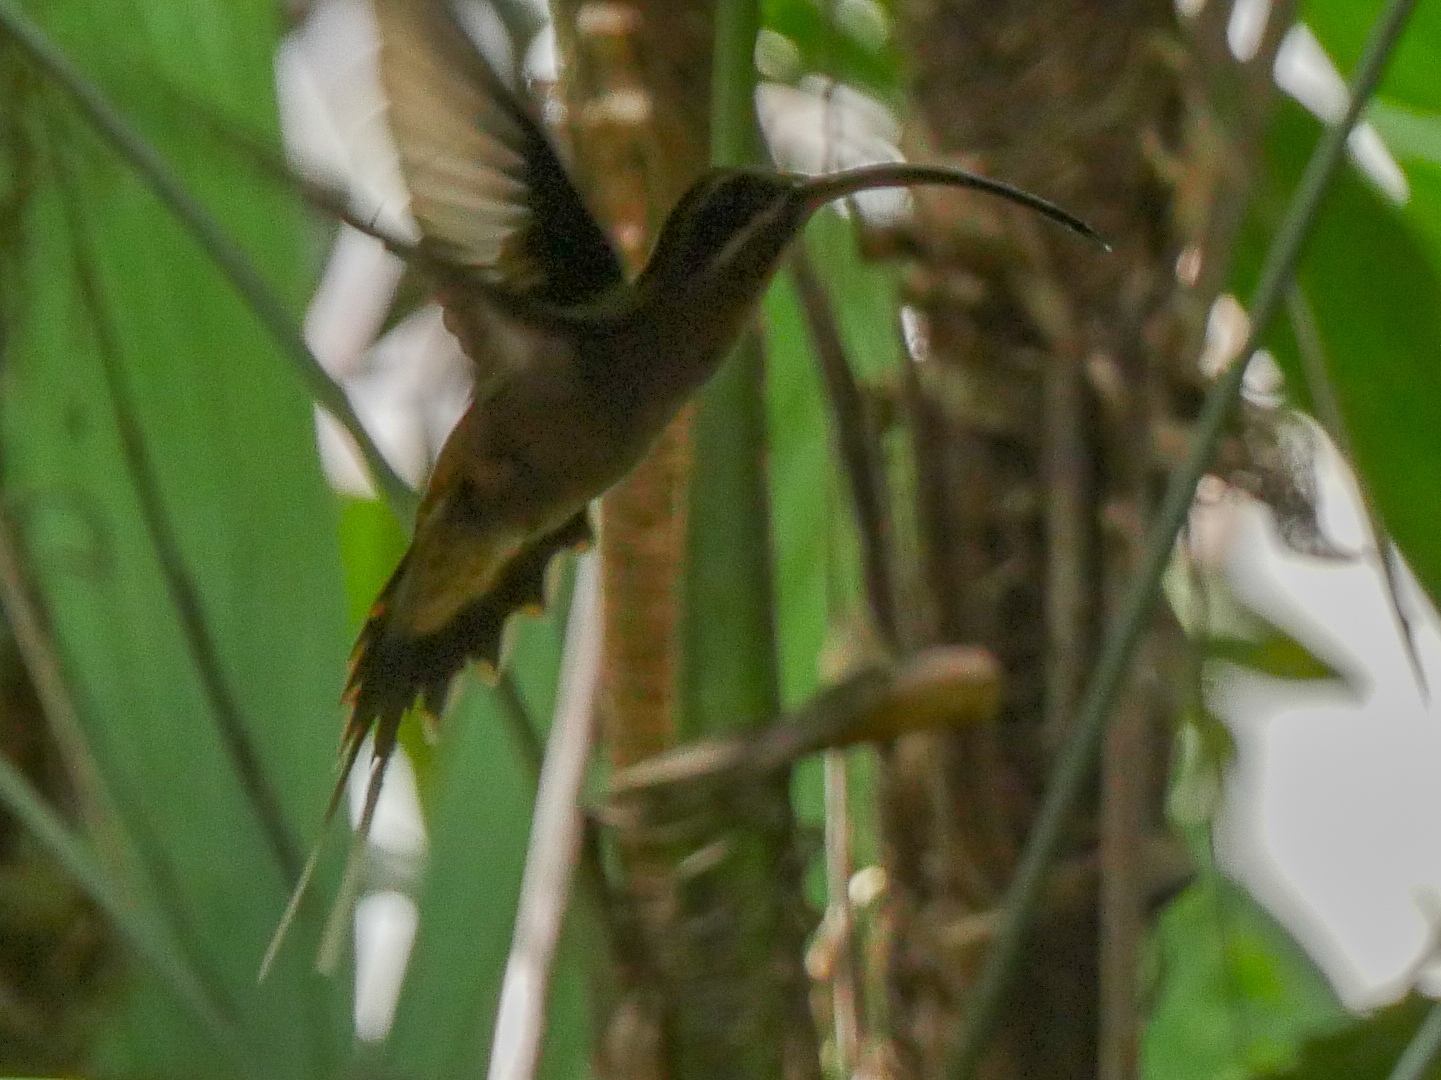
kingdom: Animalia
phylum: Chordata
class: Aves
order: Apodiformes
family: Trochilidae
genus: Phaethornis
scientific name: Phaethornis longirostris
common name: Long-billed hermit
